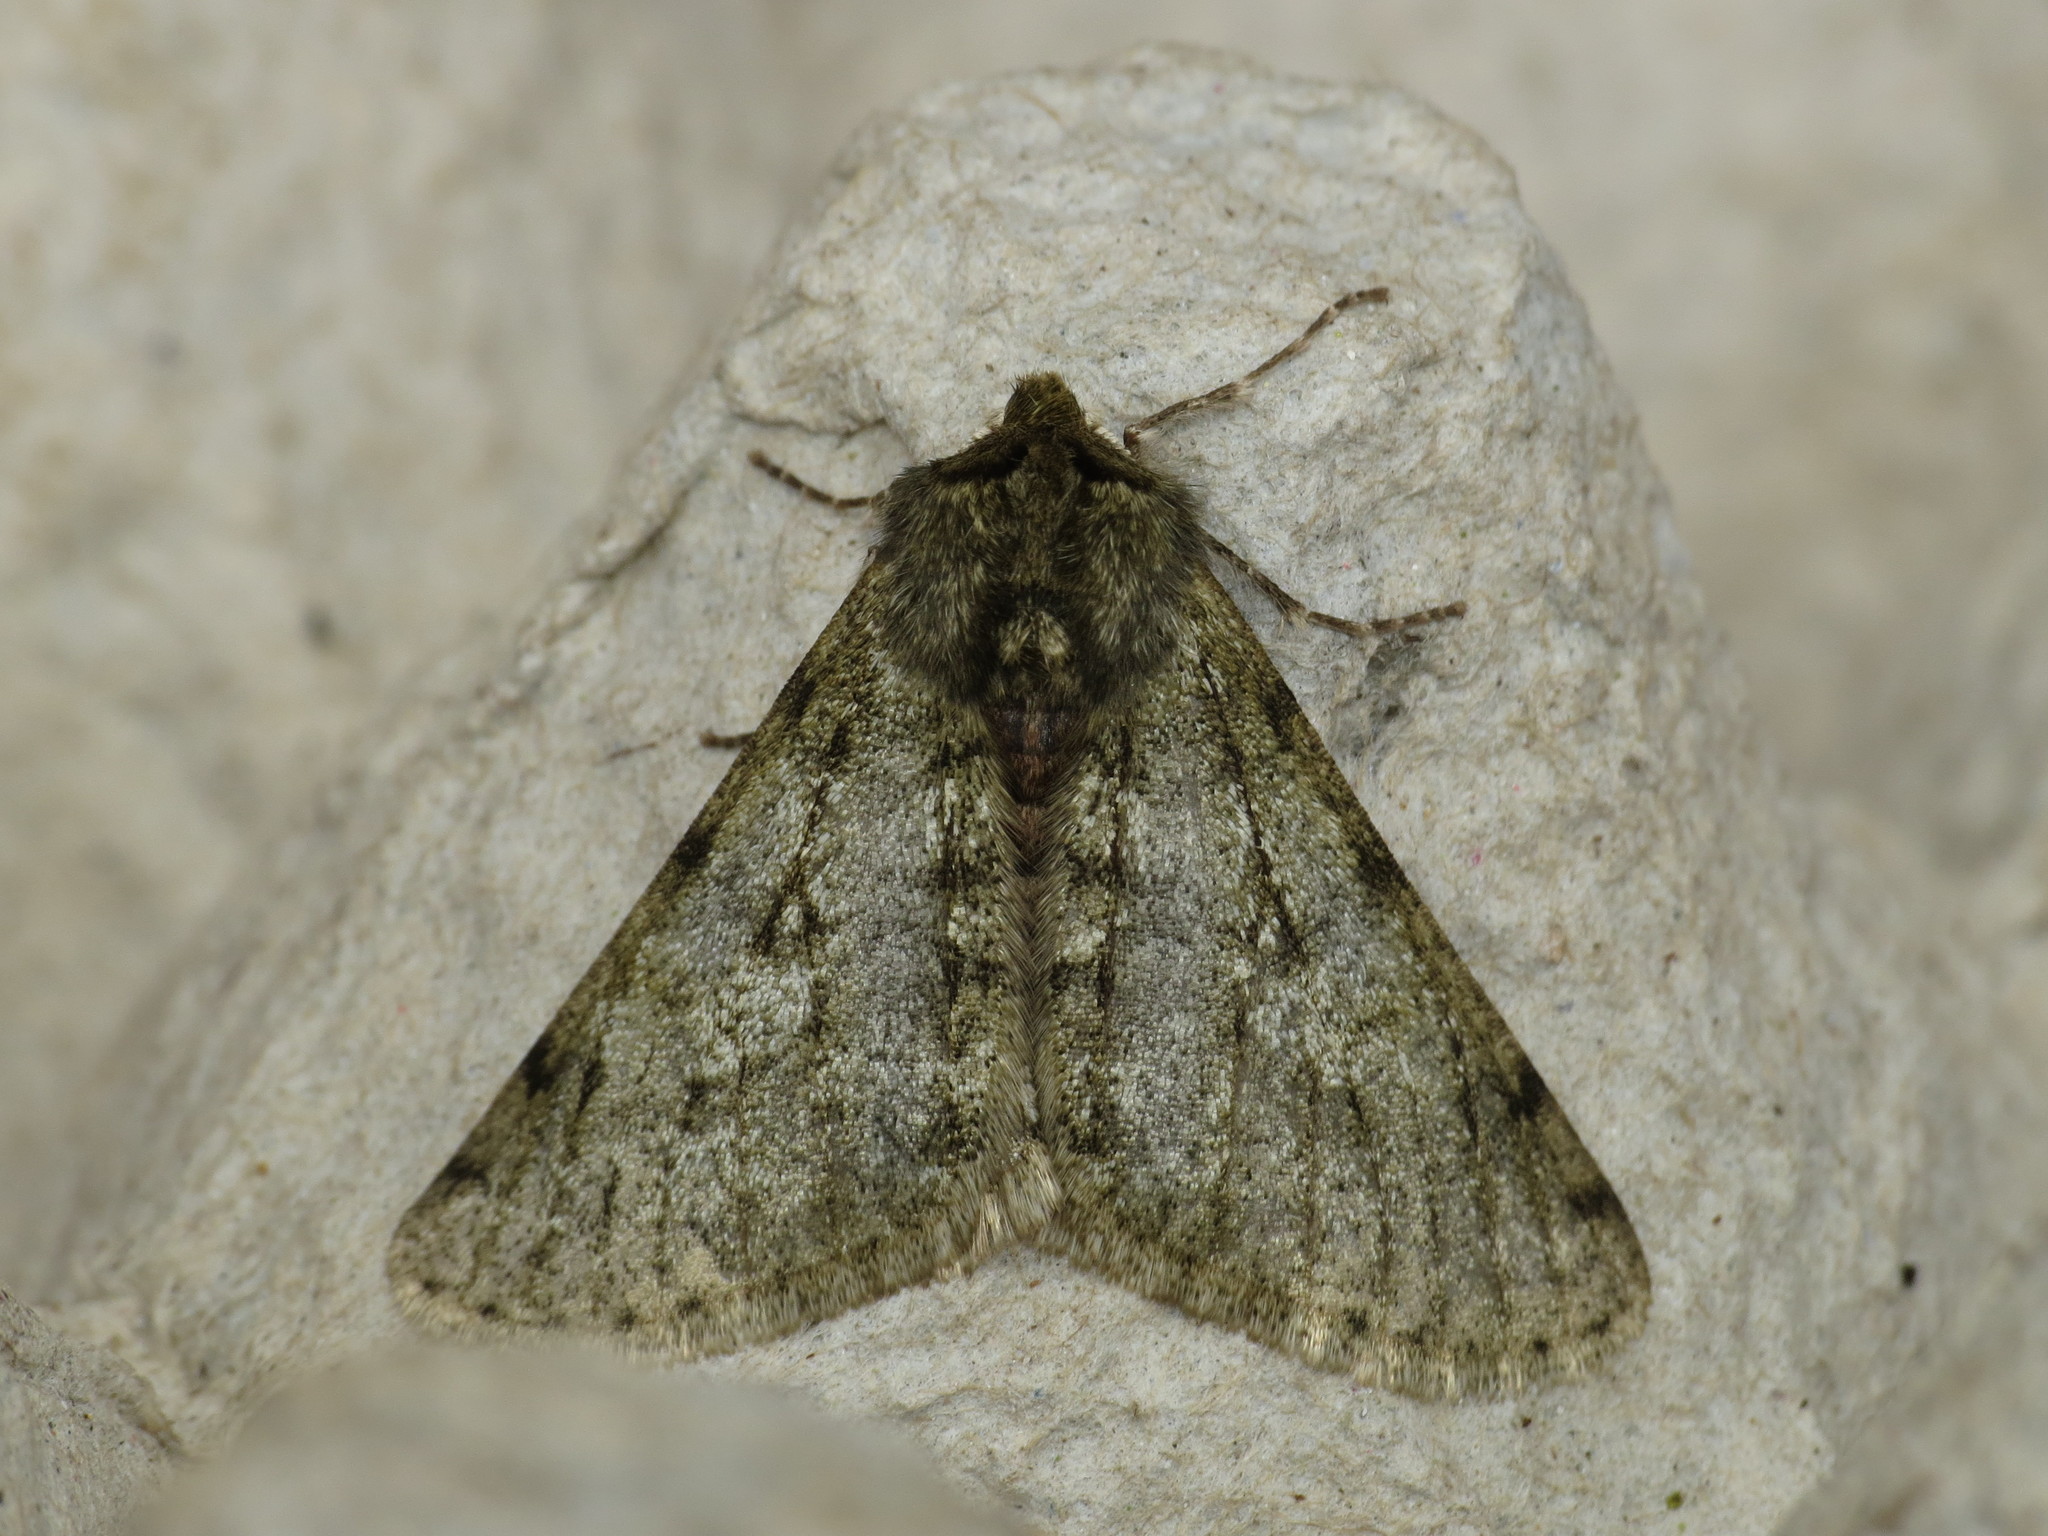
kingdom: Animalia
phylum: Arthropoda
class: Insecta
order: Lepidoptera
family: Geometridae
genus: Phigalia
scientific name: Phigalia pilosaria
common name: Pale brindled beauty
